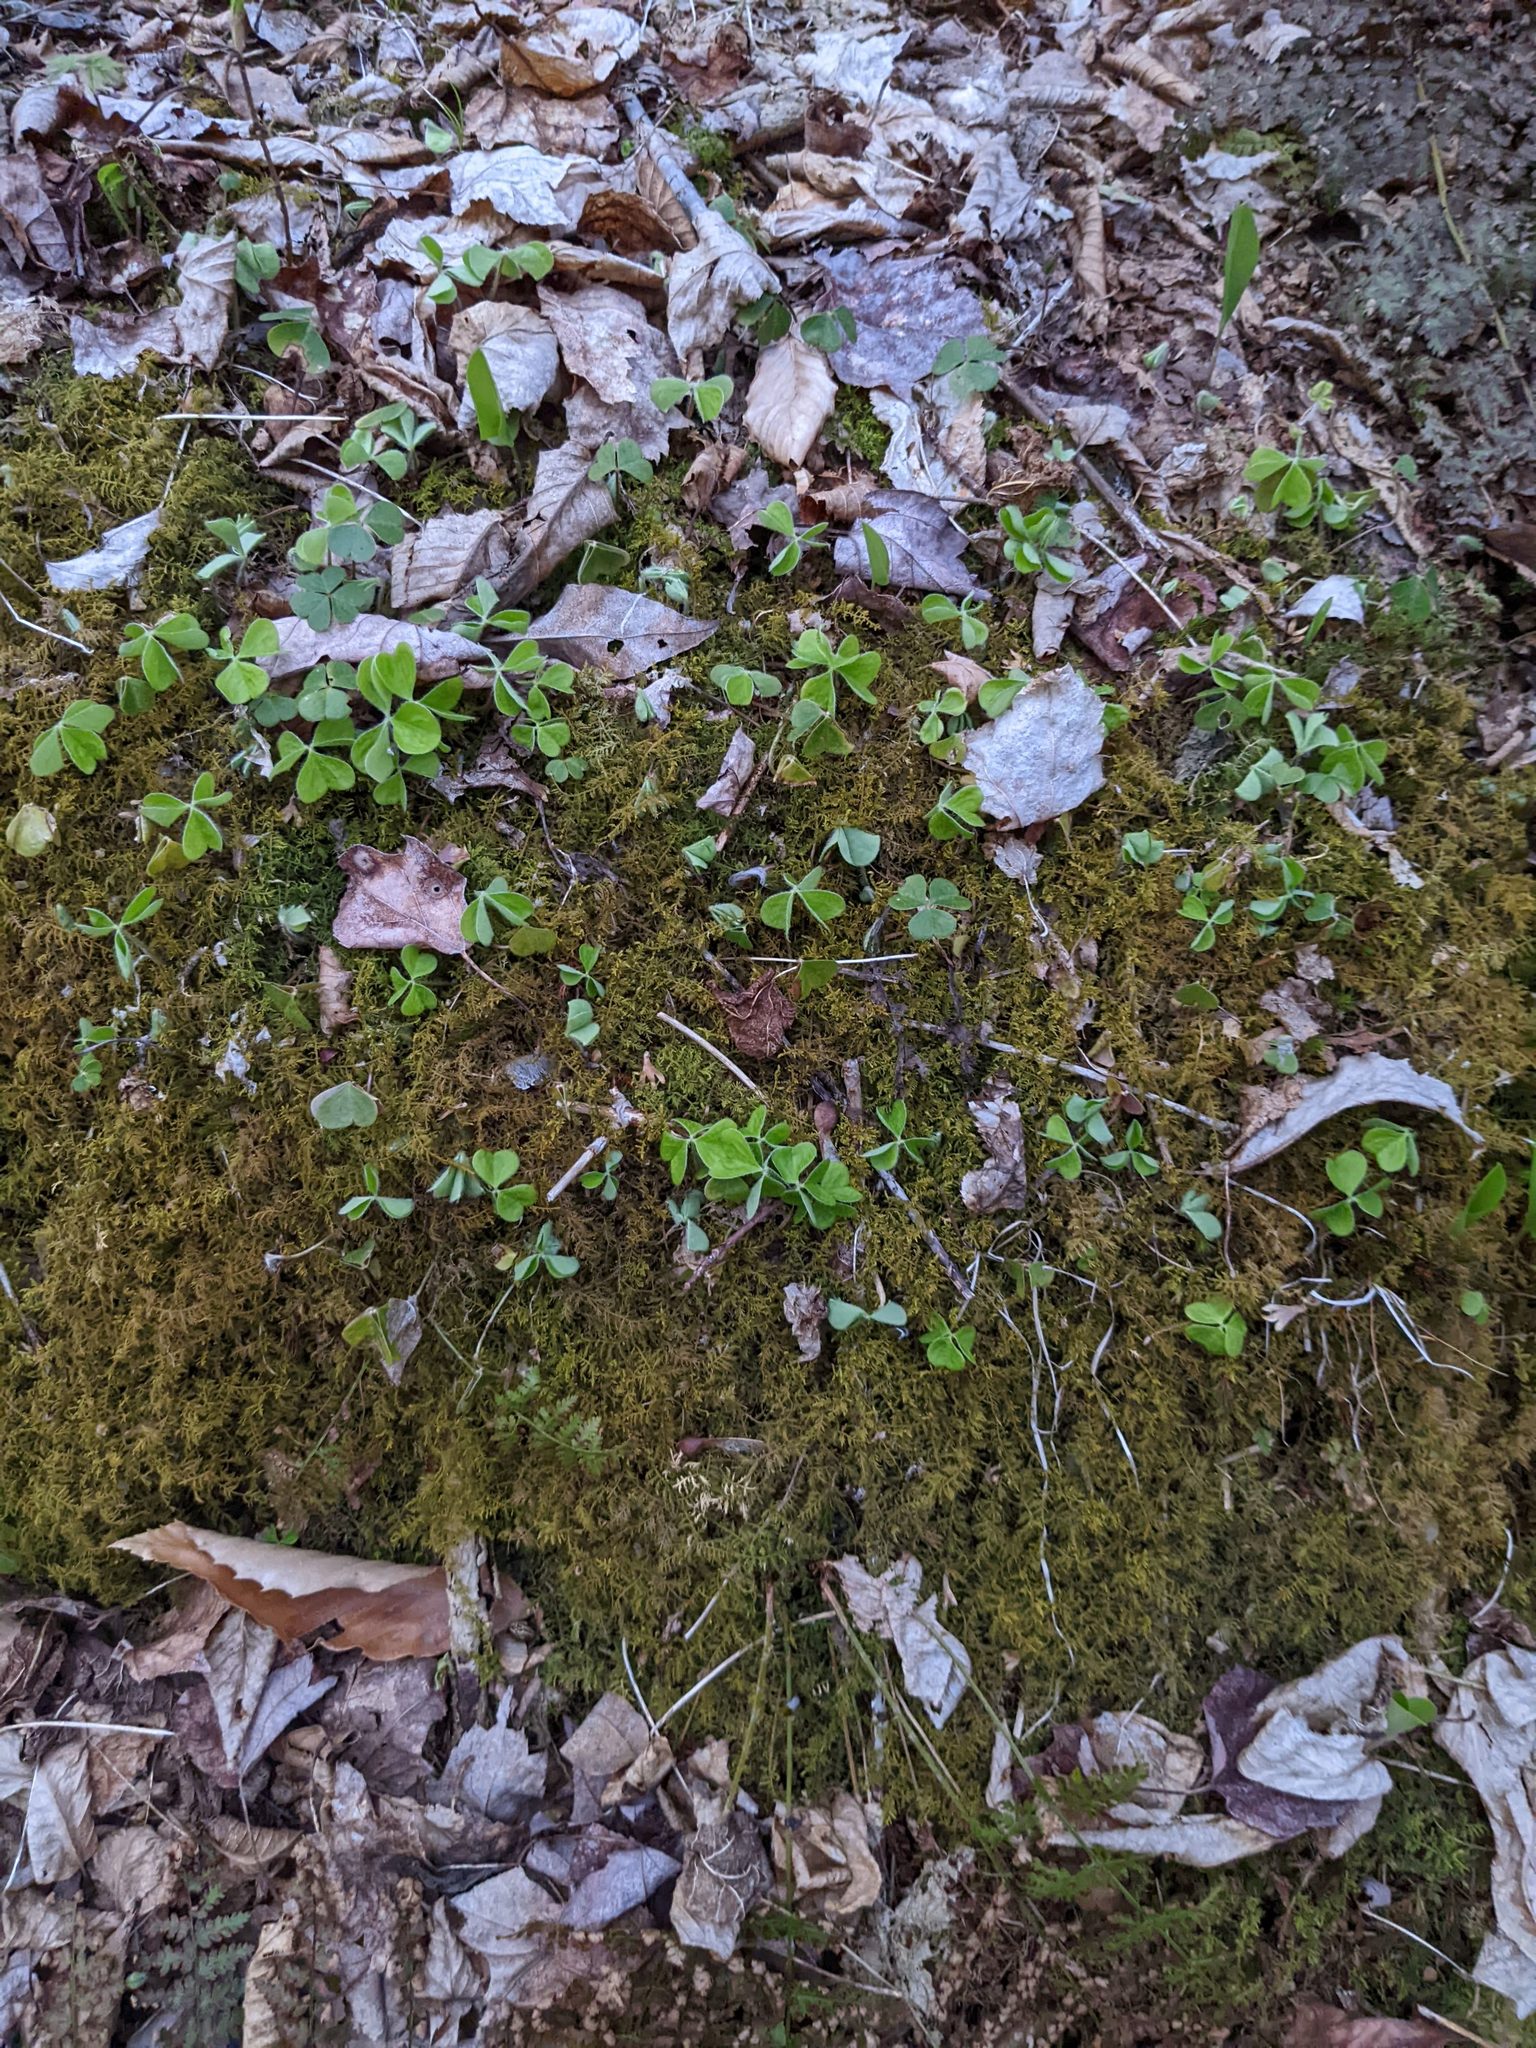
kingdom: Plantae
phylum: Tracheophyta
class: Magnoliopsida
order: Oxalidales
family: Oxalidaceae
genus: Oxalis
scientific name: Oxalis montana
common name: American wood-sorrel
